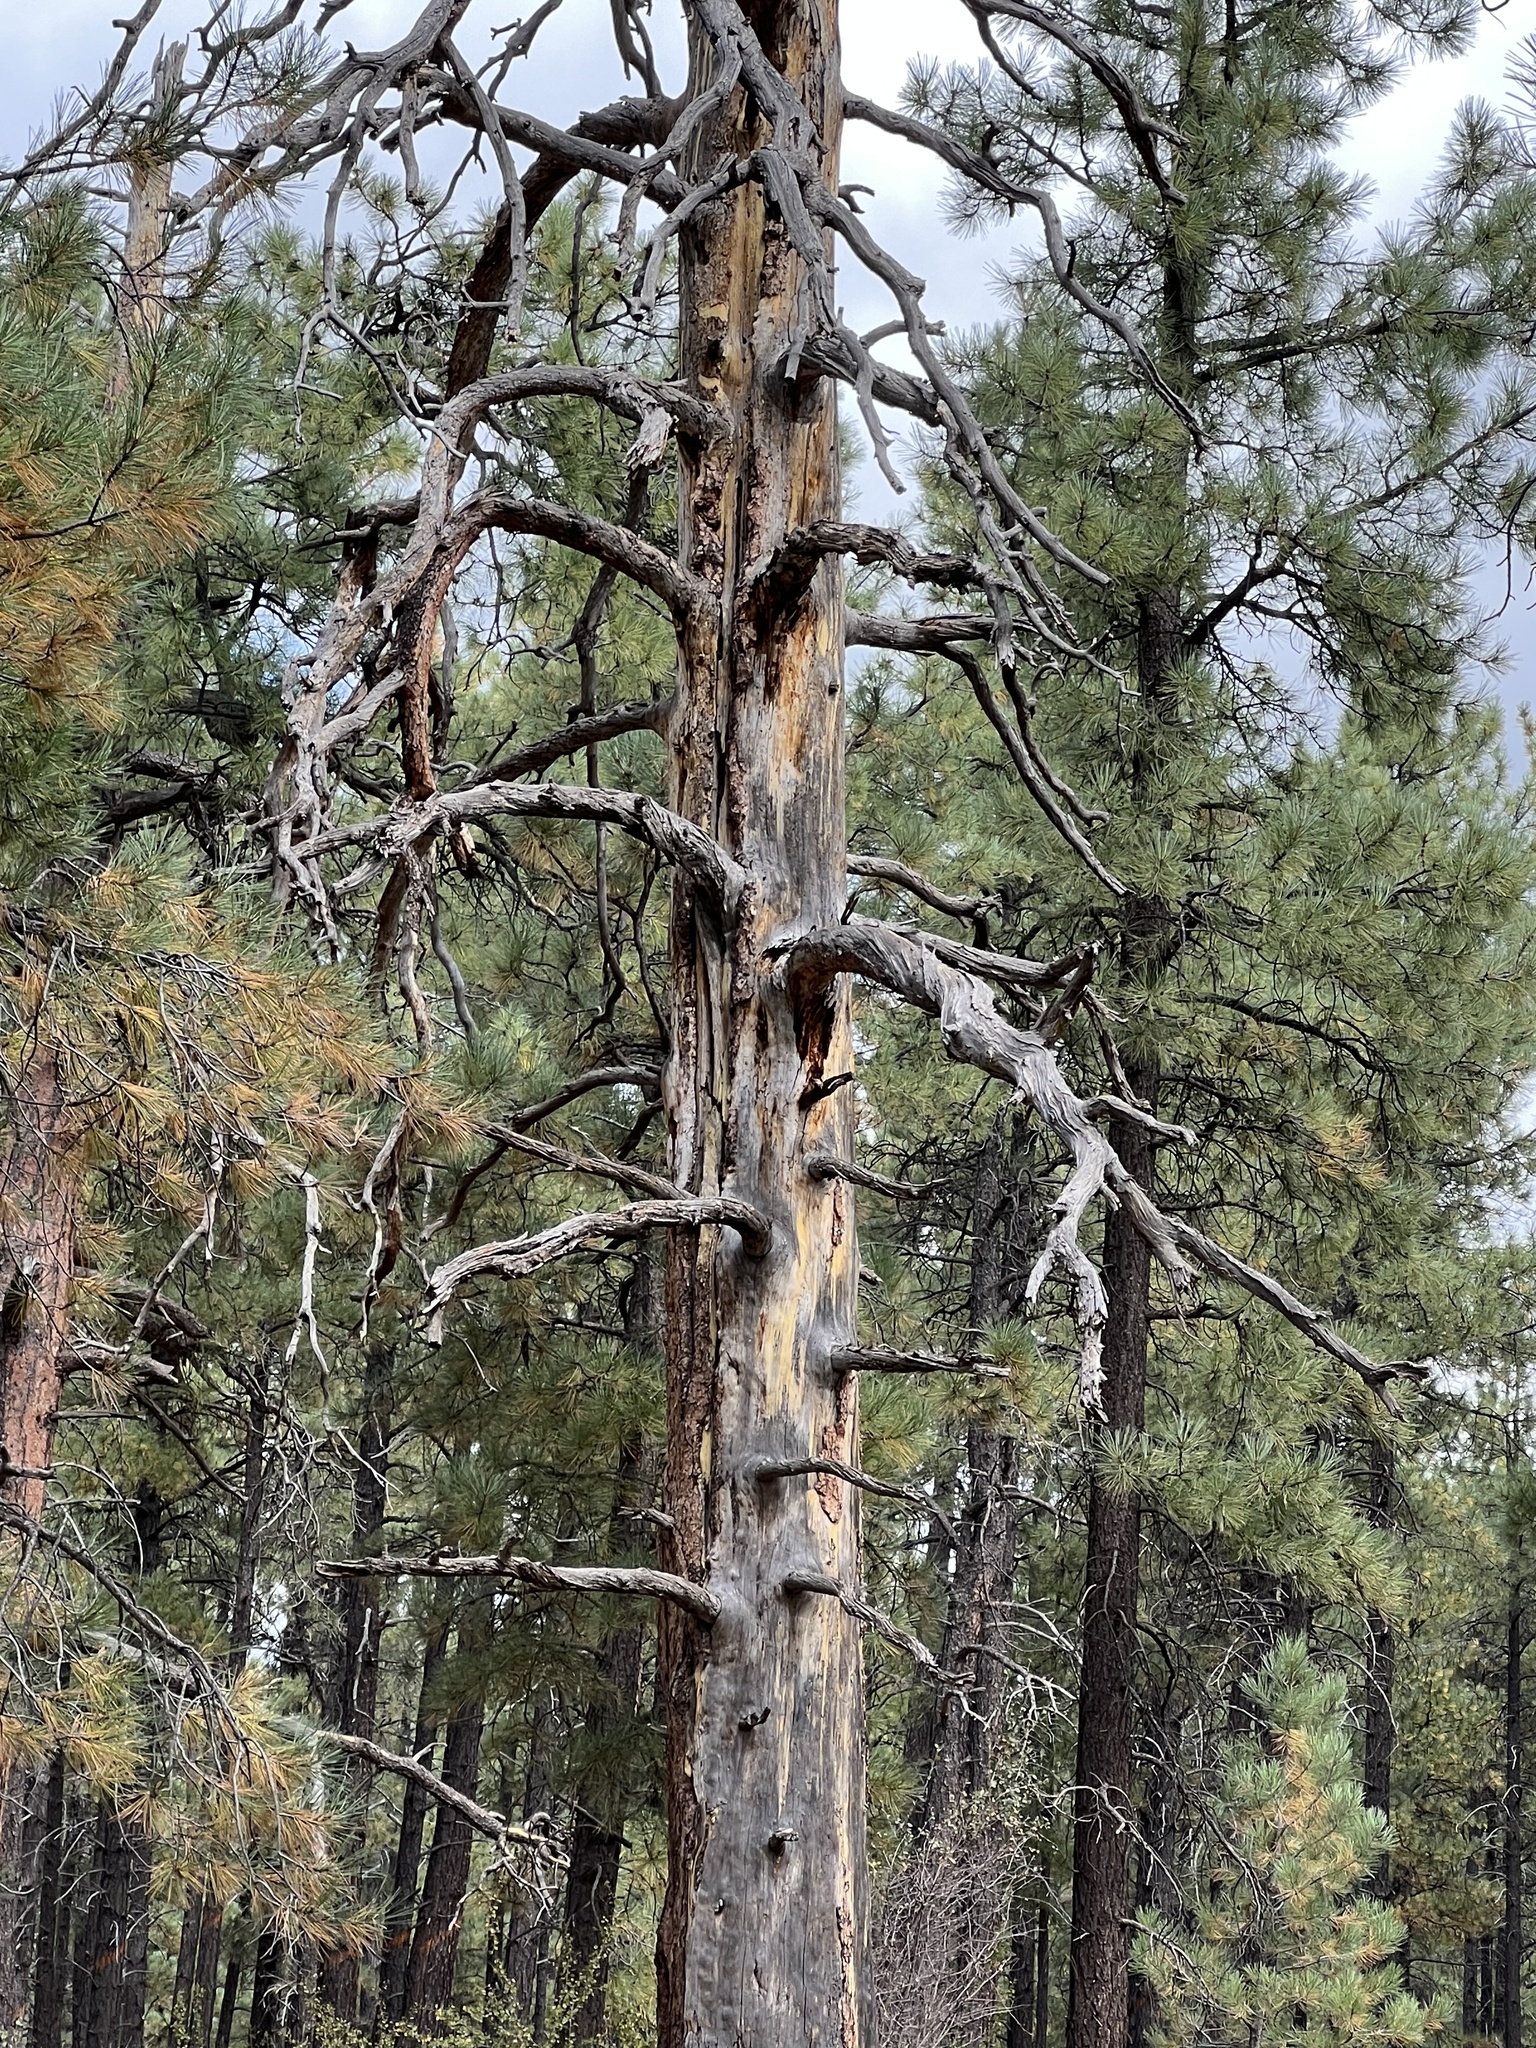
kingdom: Plantae
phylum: Tracheophyta
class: Pinopsida
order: Pinales
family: Pinaceae
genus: Pinus
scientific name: Pinus ponderosa
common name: Western yellow-pine
